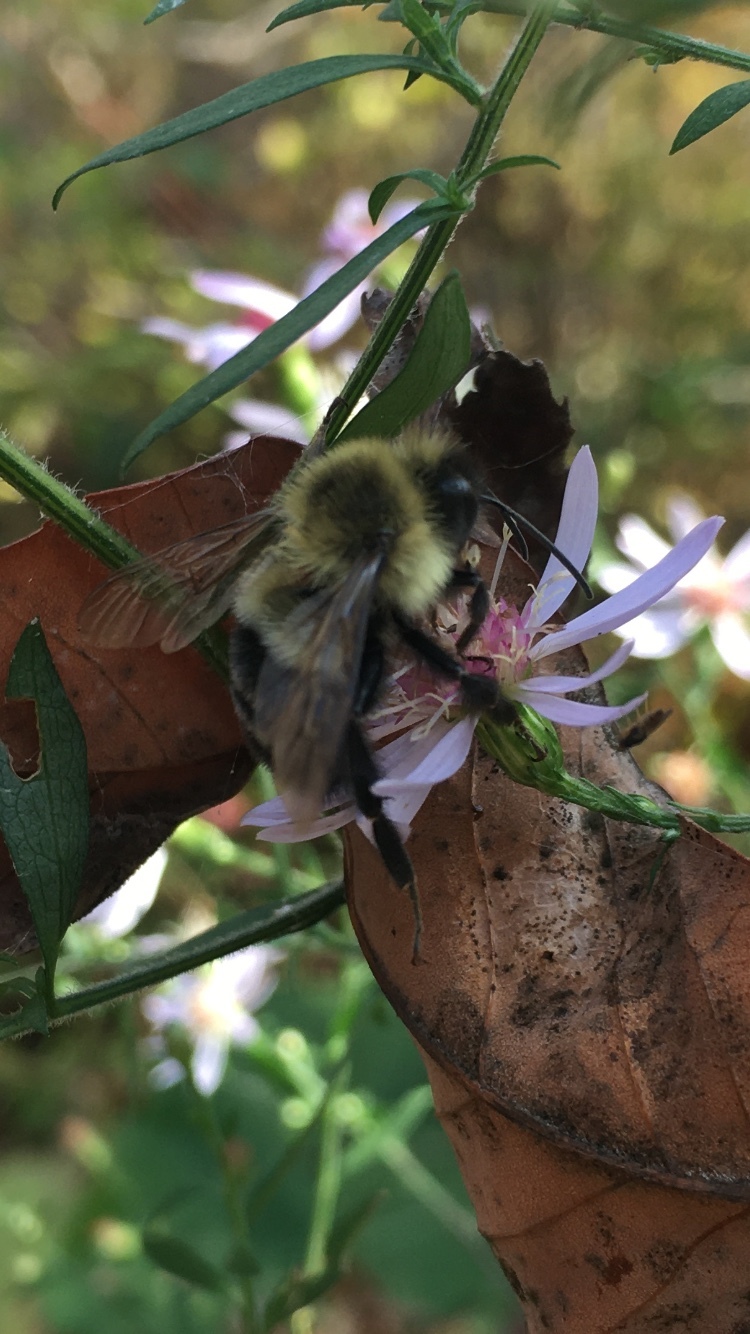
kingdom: Animalia
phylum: Arthropoda
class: Insecta
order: Hymenoptera
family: Apidae
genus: Bombus
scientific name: Bombus impatiens
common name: Common eastern bumble bee
